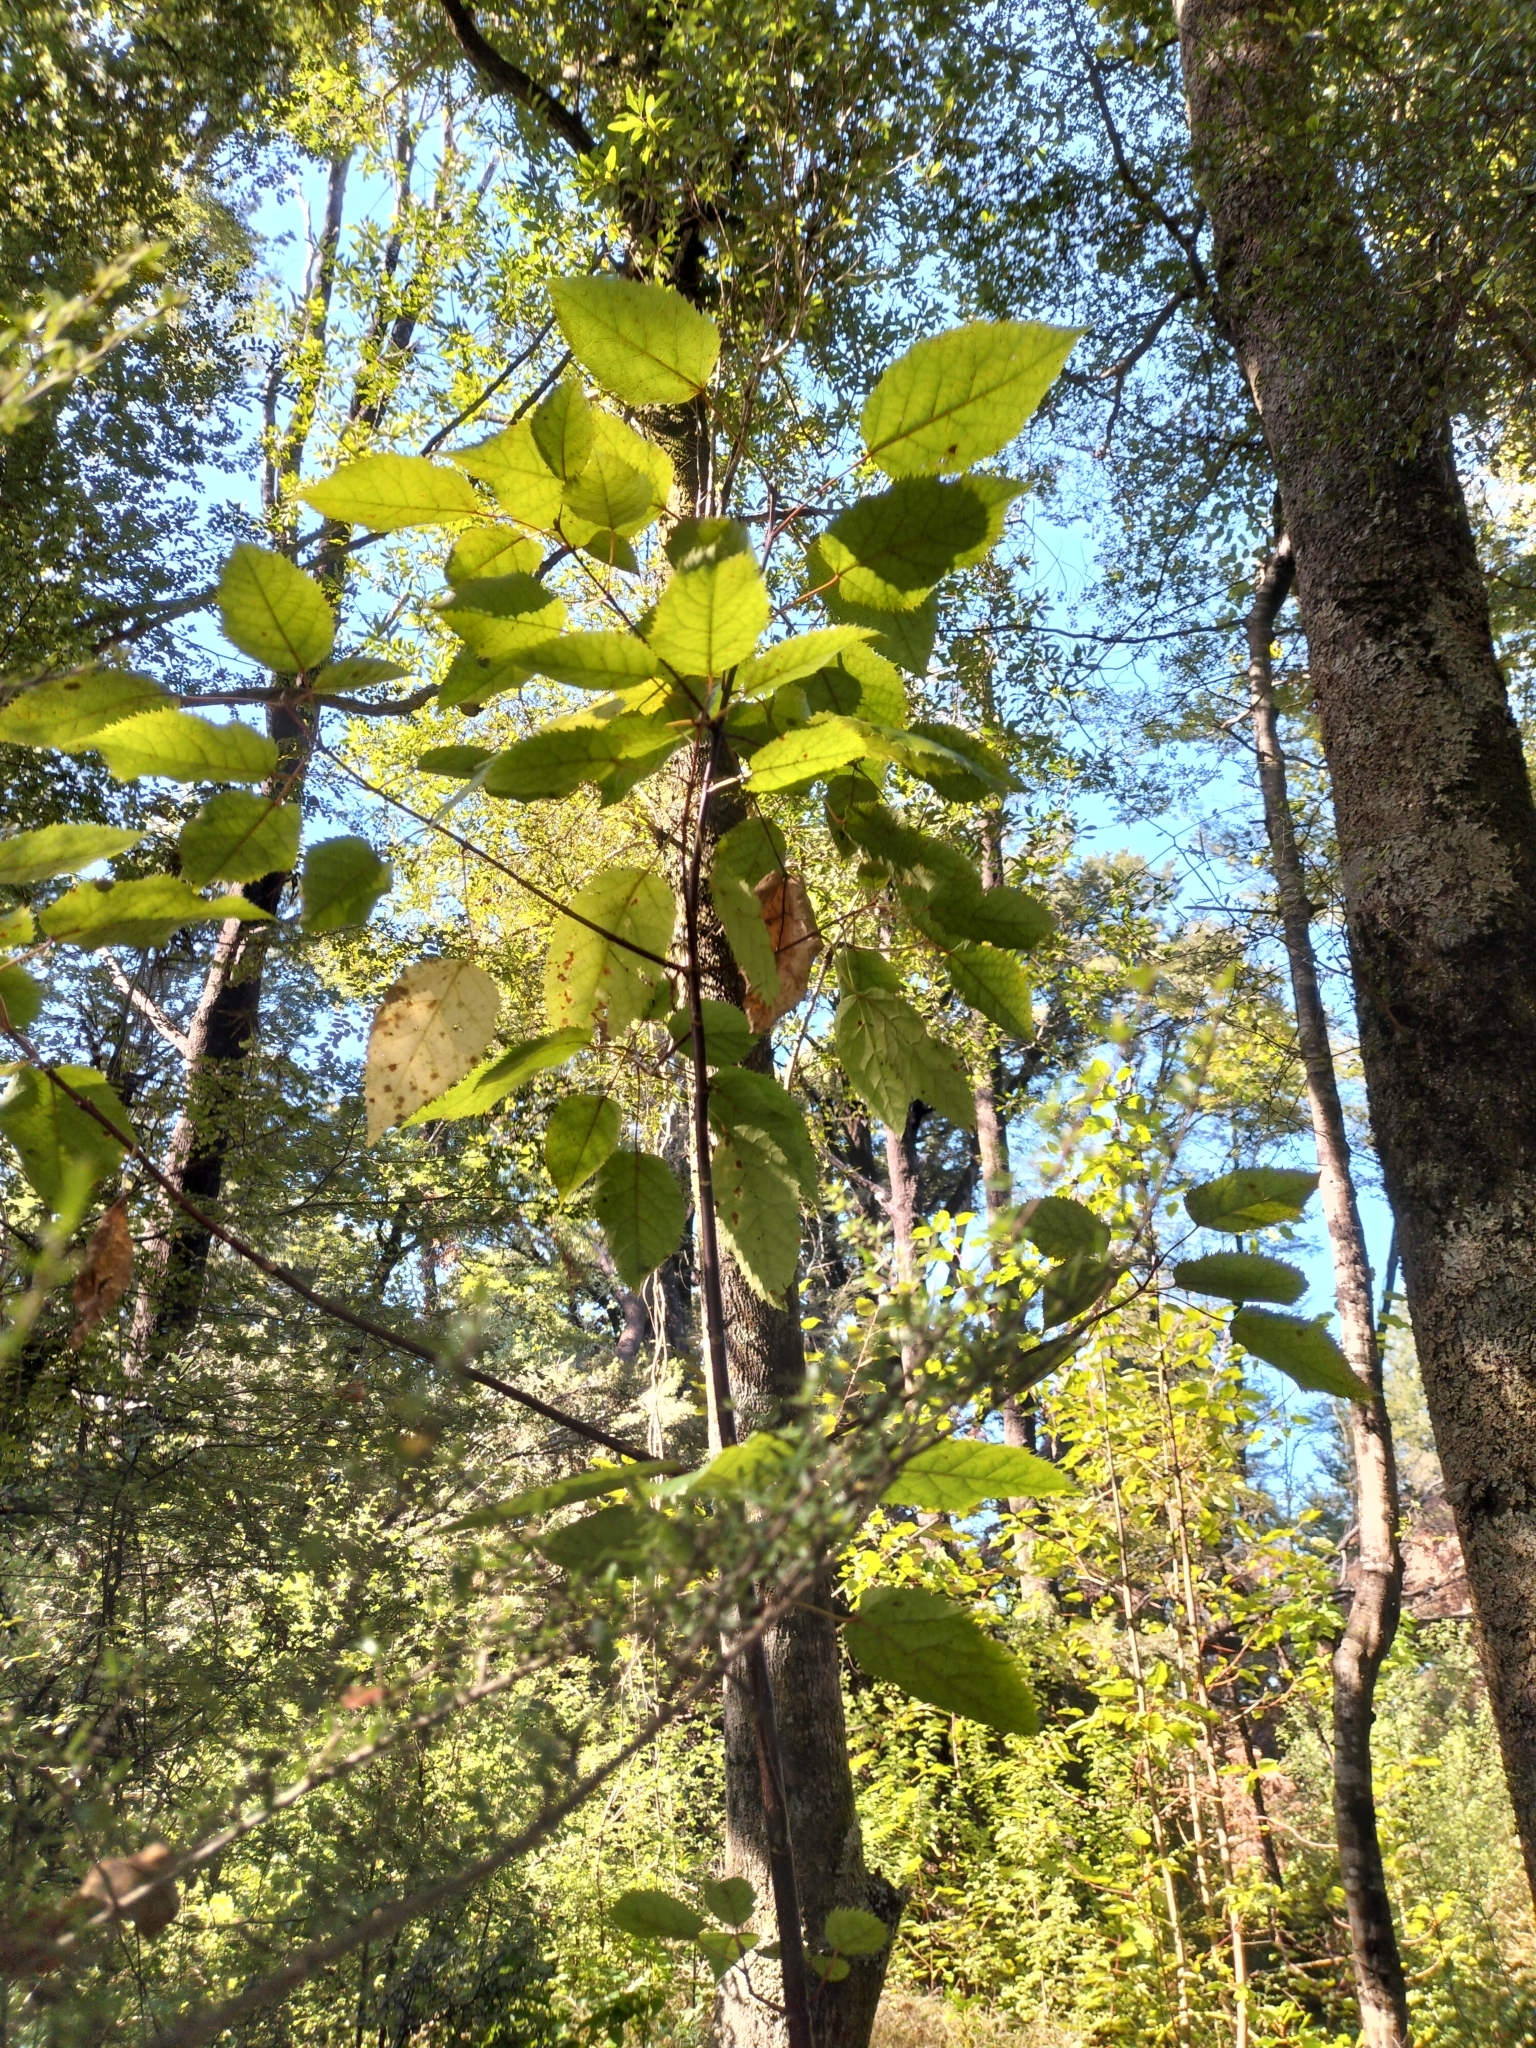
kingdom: Plantae
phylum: Tracheophyta
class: Magnoliopsida
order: Oxalidales
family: Elaeocarpaceae
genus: Aristotelia
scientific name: Aristotelia serrata
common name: New zealand wineberry
